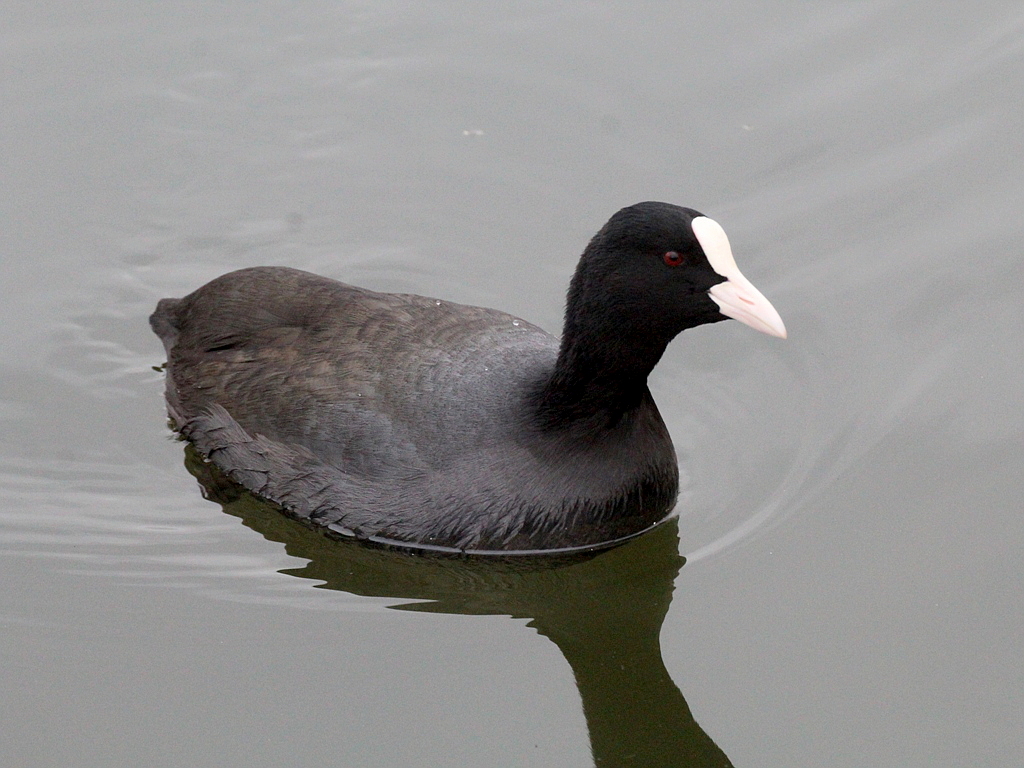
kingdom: Animalia
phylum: Chordata
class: Aves
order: Gruiformes
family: Rallidae
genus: Fulica
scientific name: Fulica atra
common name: Eurasian coot
